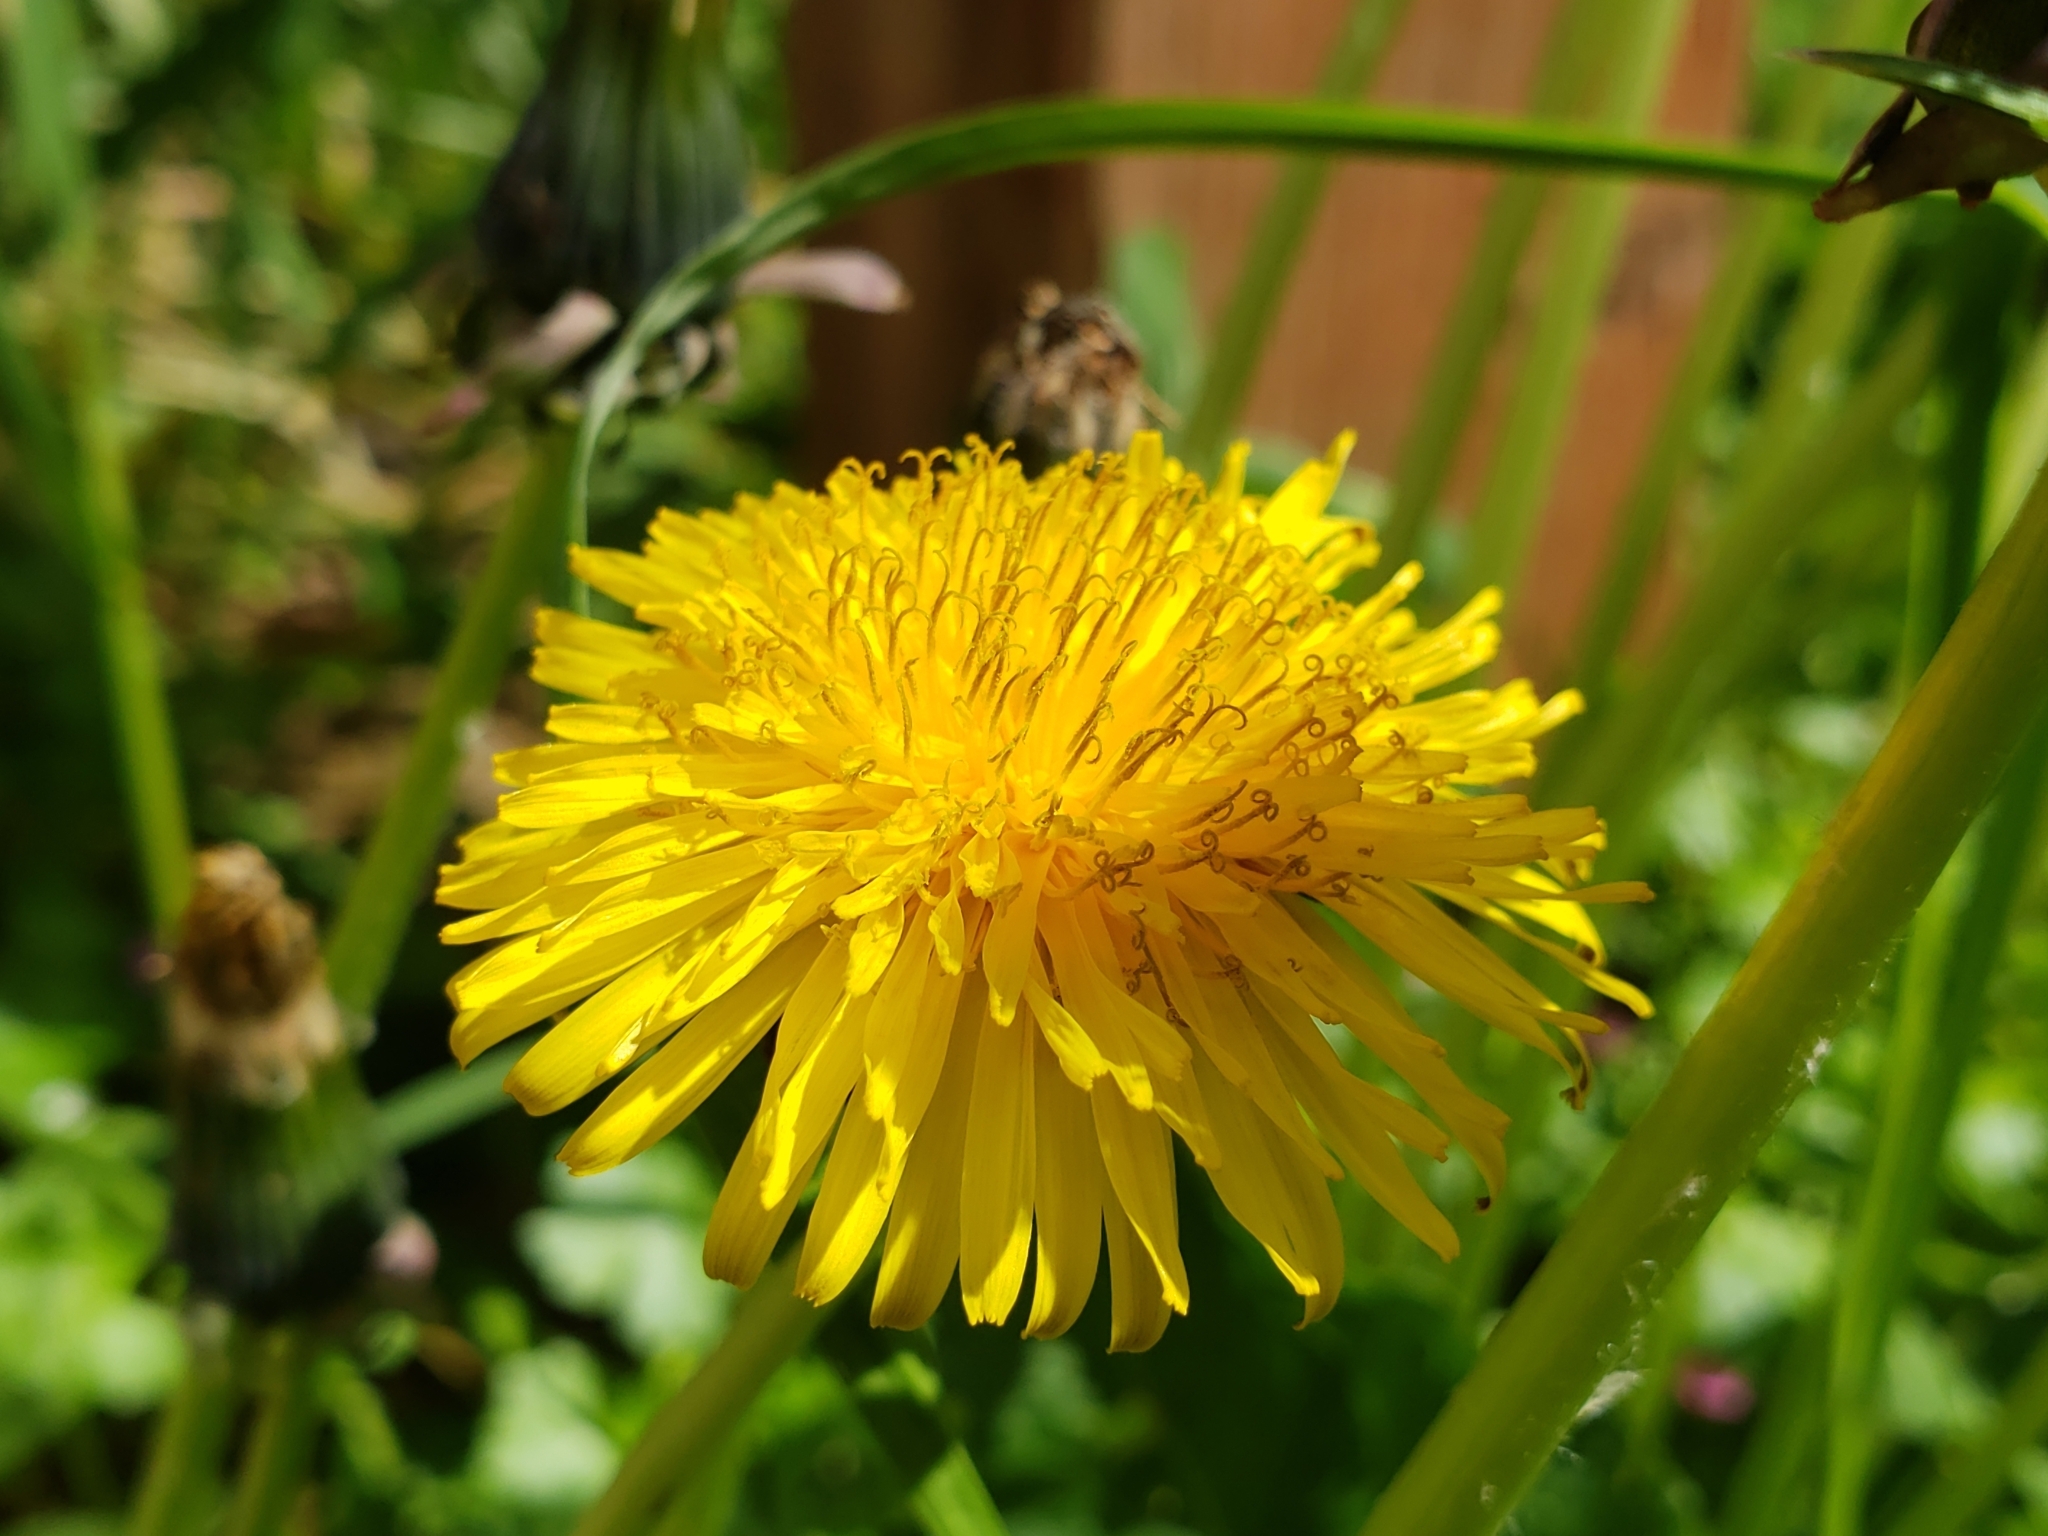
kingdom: Plantae
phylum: Tracheophyta
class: Magnoliopsida
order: Asterales
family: Asteraceae
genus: Taraxacum
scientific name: Taraxacum officinale
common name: Common dandelion
